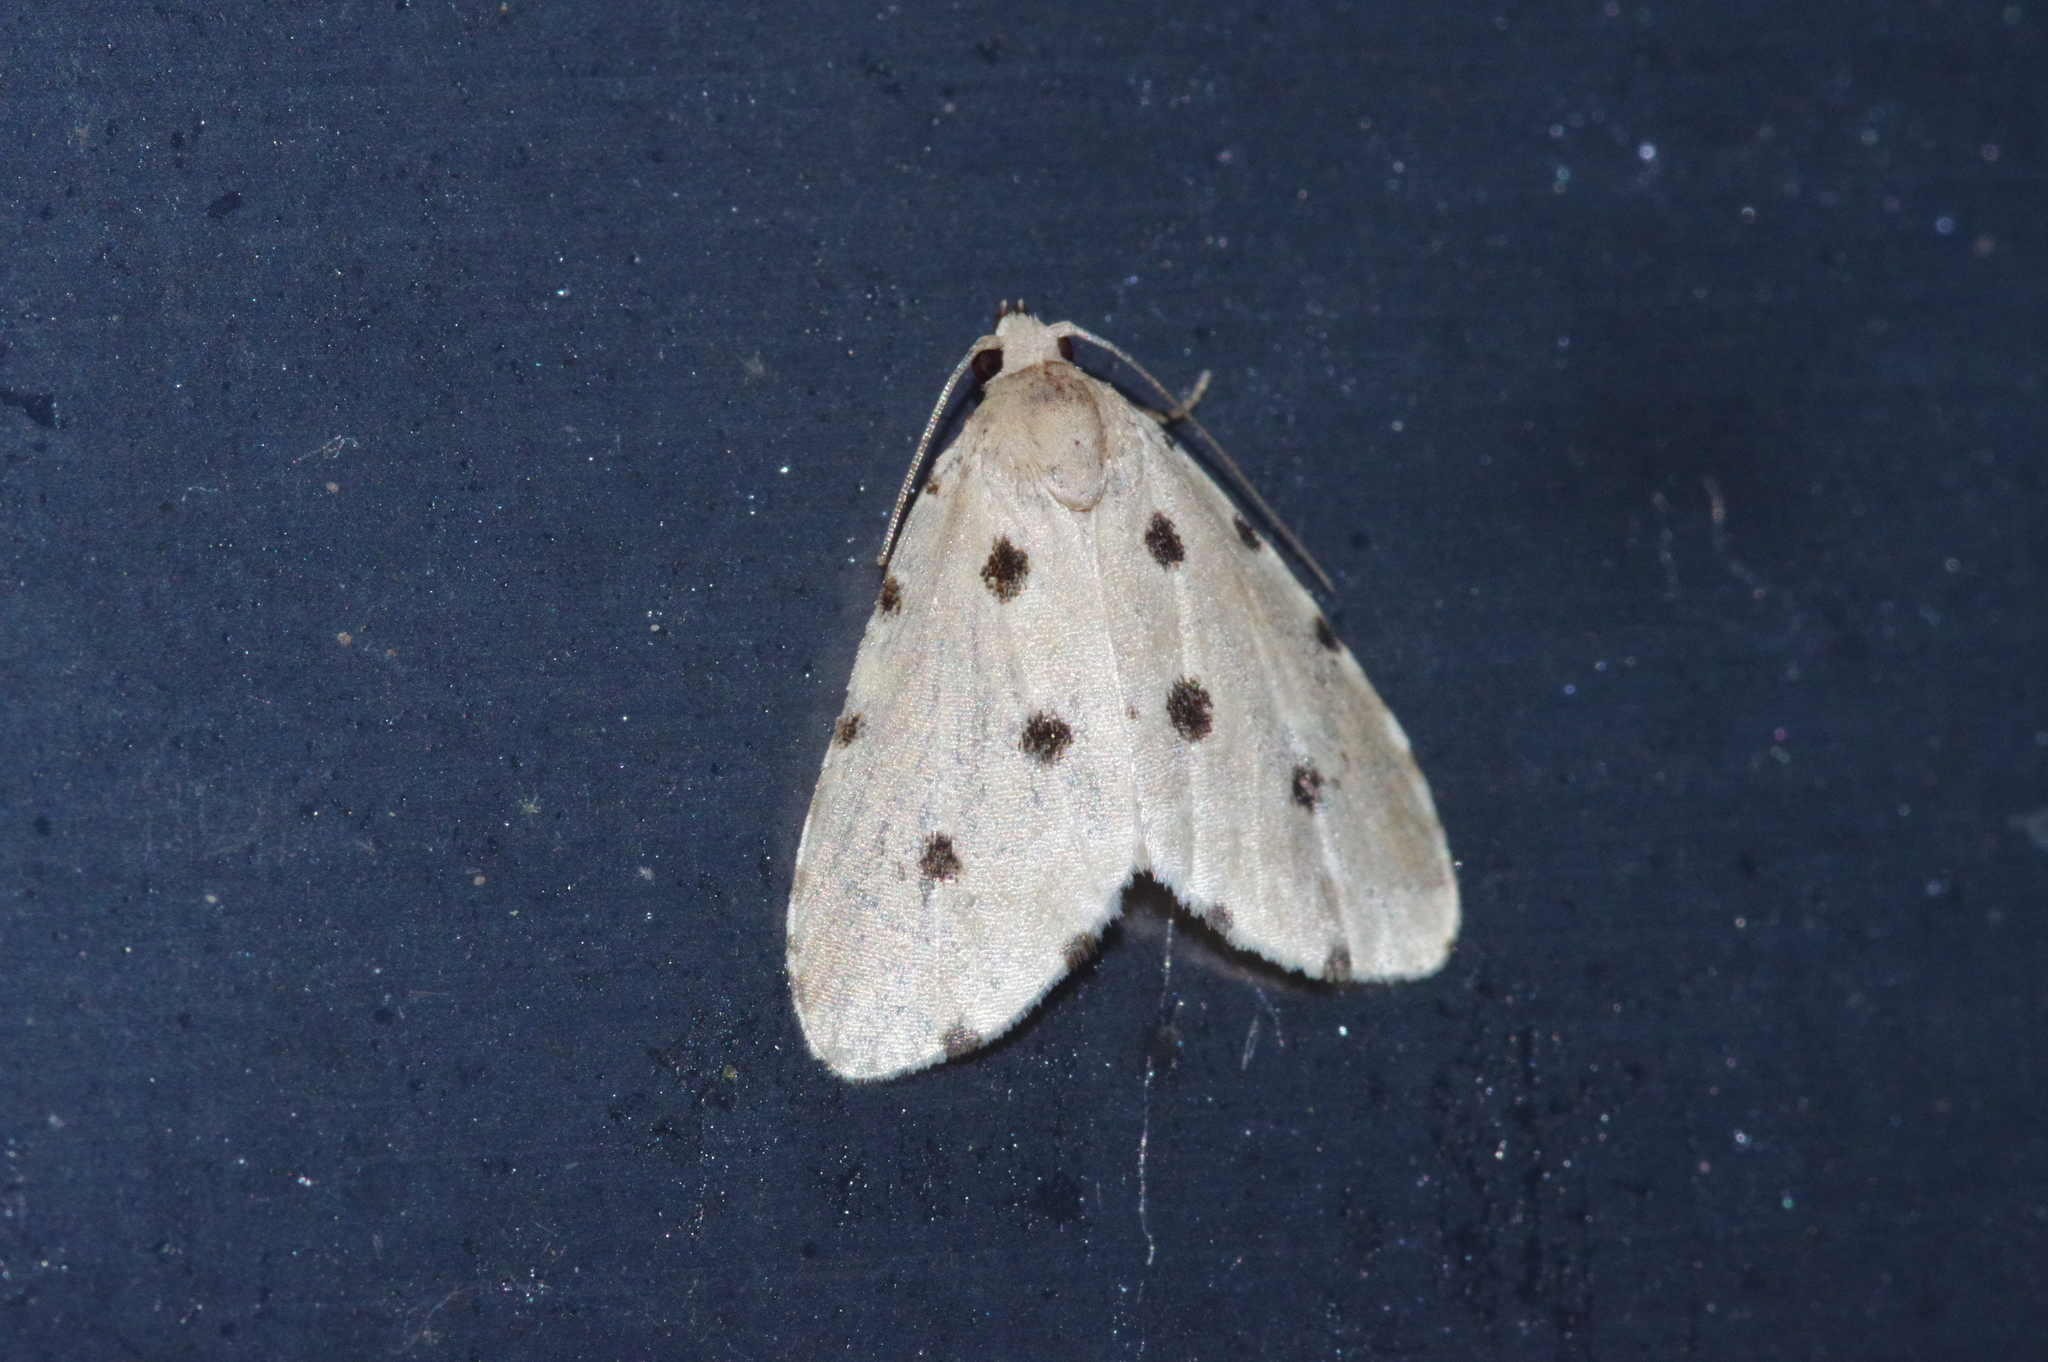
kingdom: Animalia
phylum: Arthropoda
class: Insecta
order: Lepidoptera
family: Noctuidae
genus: Metaemene
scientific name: Metaemene atrigutta
